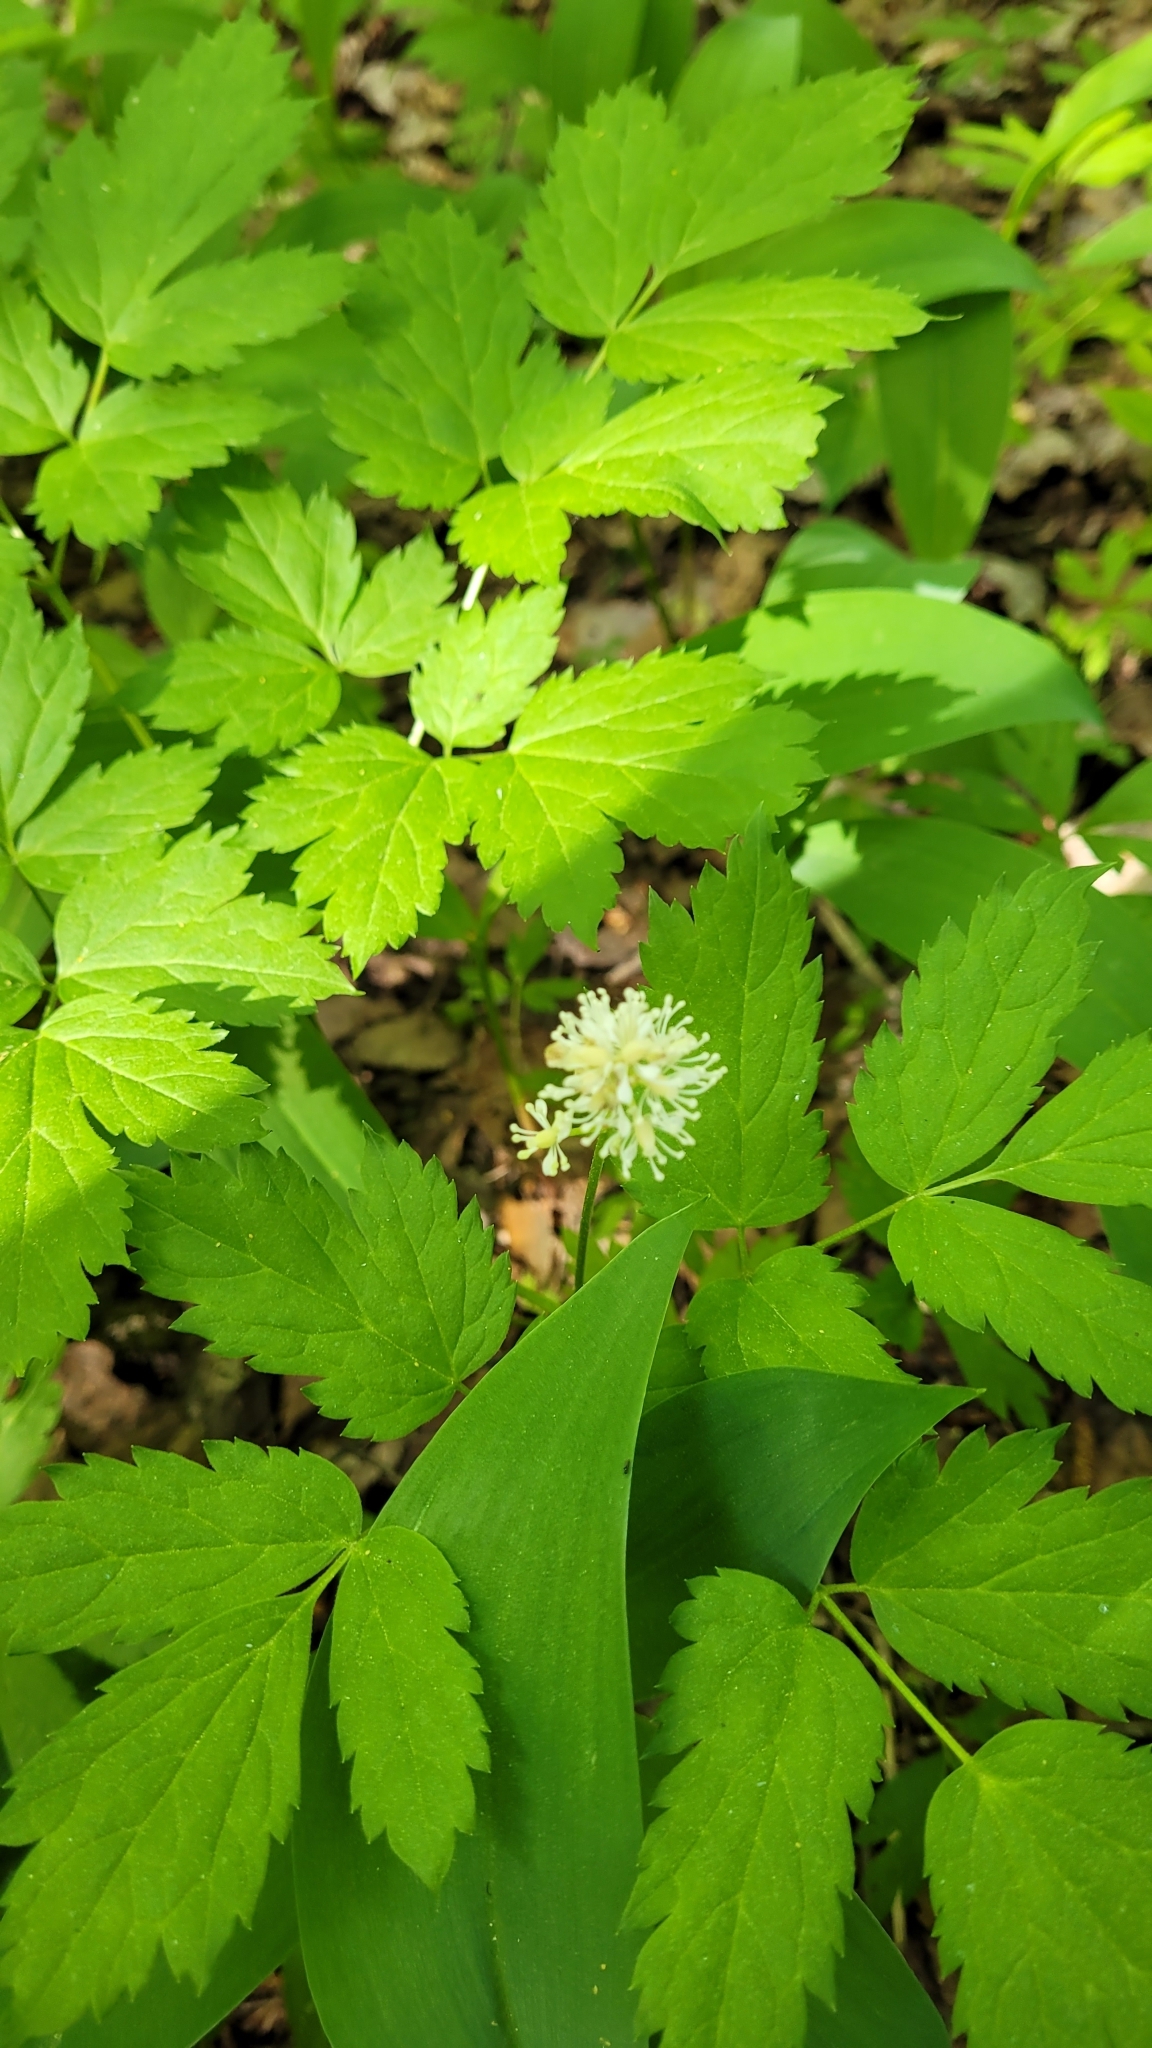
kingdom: Plantae
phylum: Tracheophyta
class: Magnoliopsida
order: Ranunculales
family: Ranunculaceae
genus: Actaea
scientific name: Actaea spicata
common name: Baneberry
